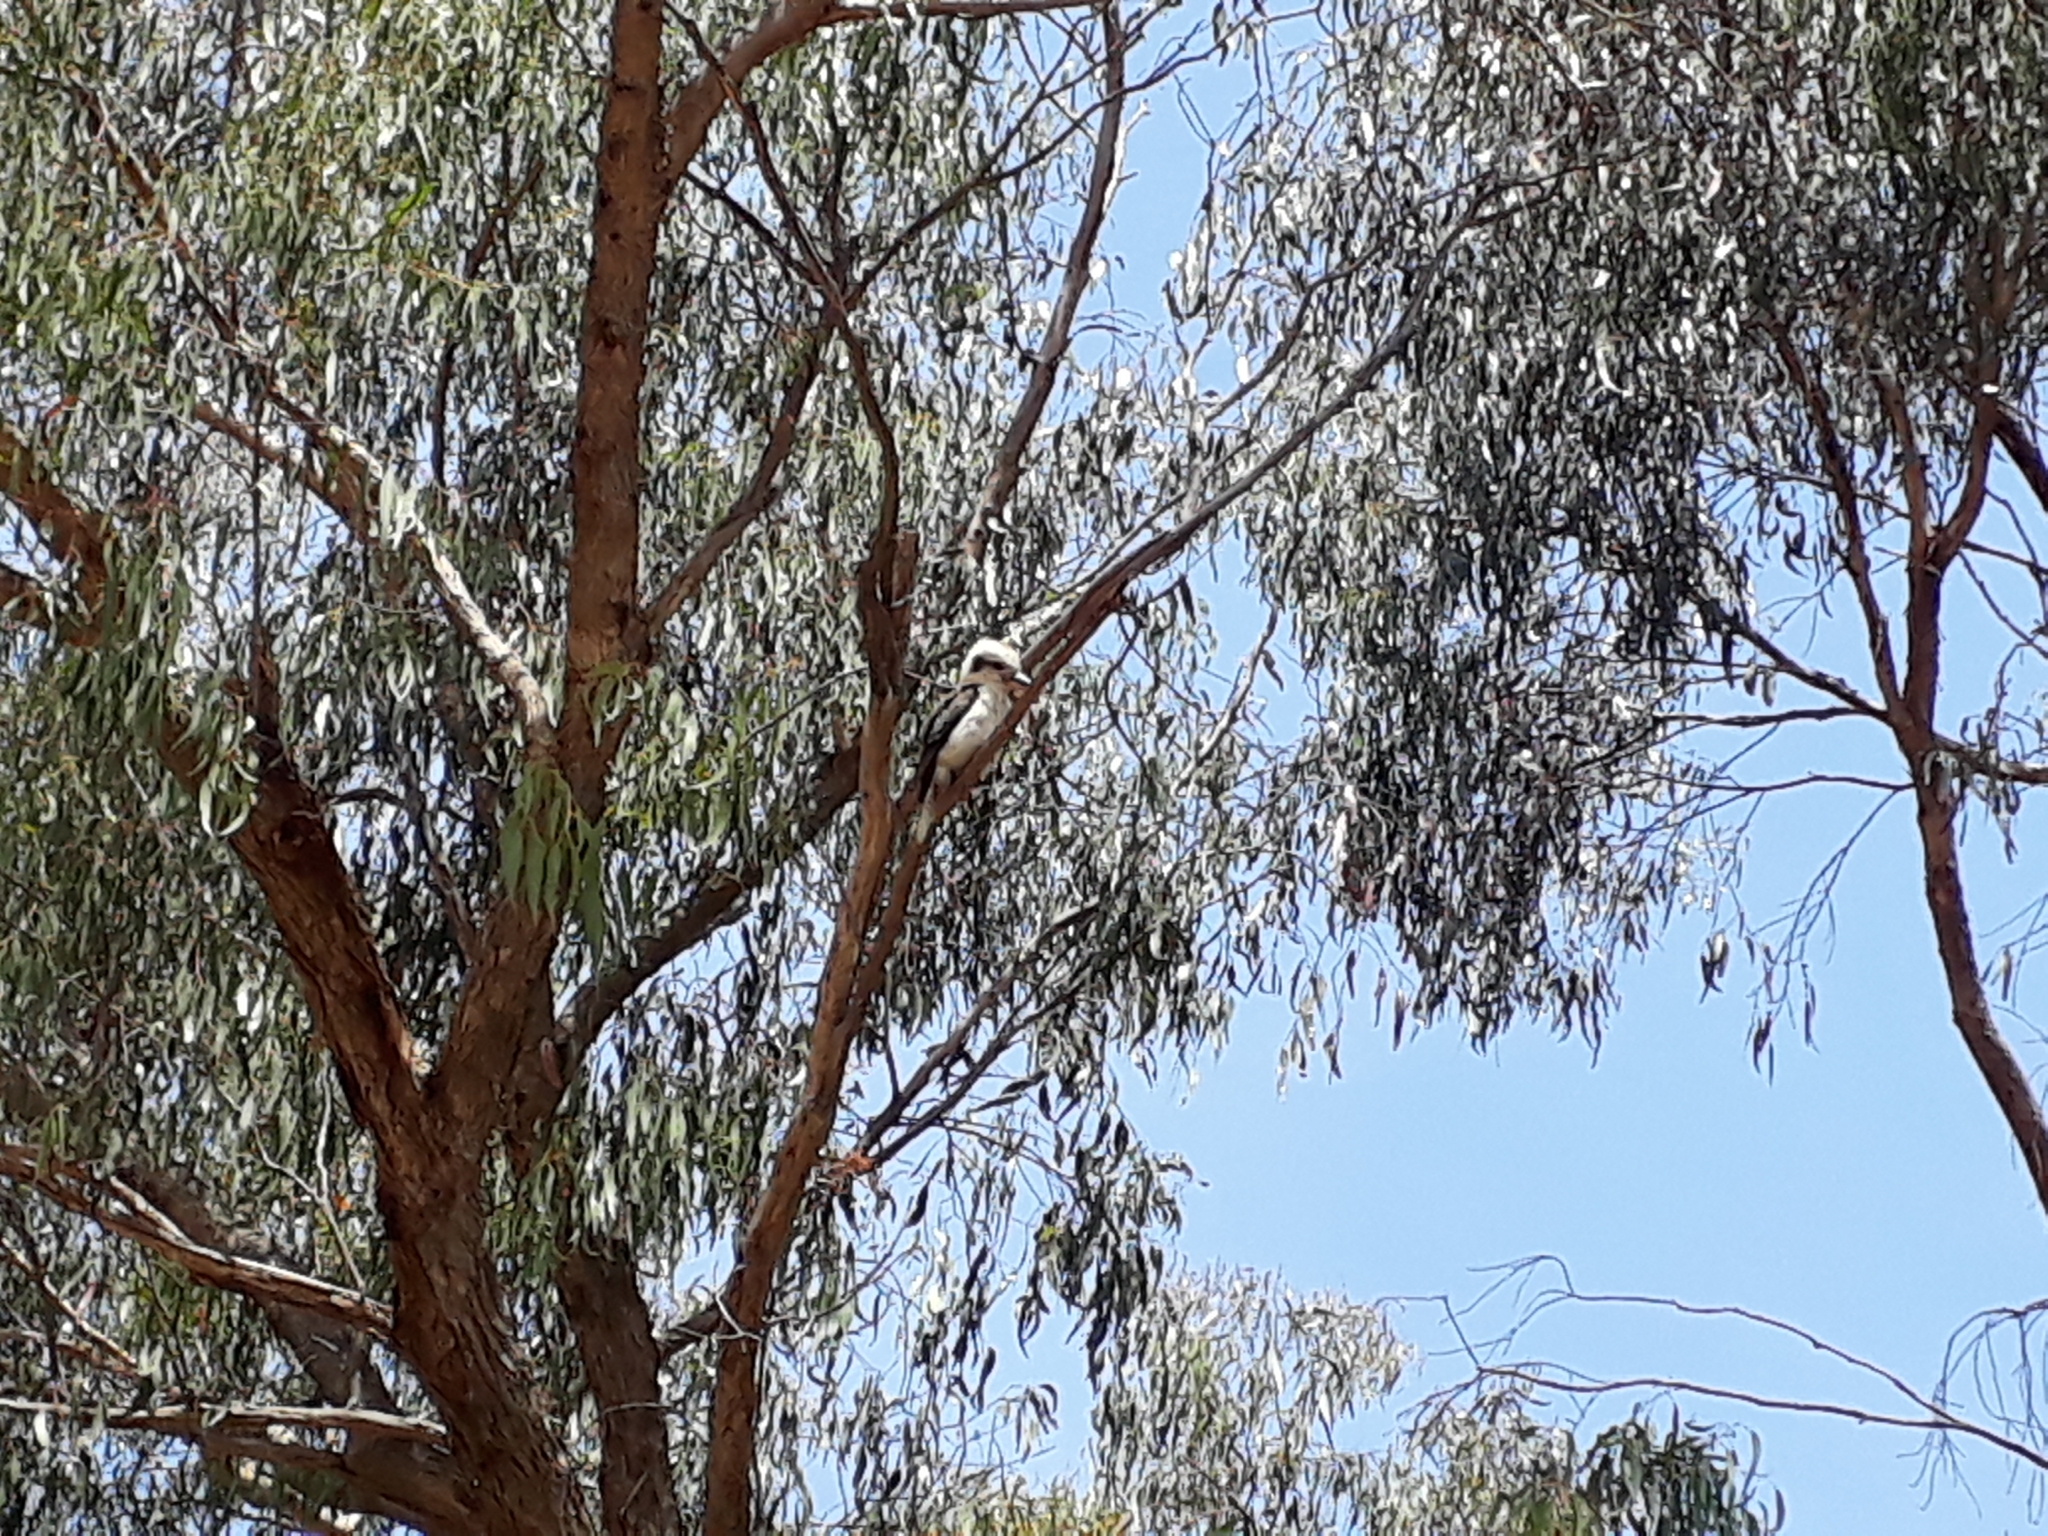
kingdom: Animalia
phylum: Chordata
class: Aves
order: Coraciiformes
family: Alcedinidae
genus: Dacelo
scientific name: Dacelo novaeguineae
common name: Laughing kookaburra
